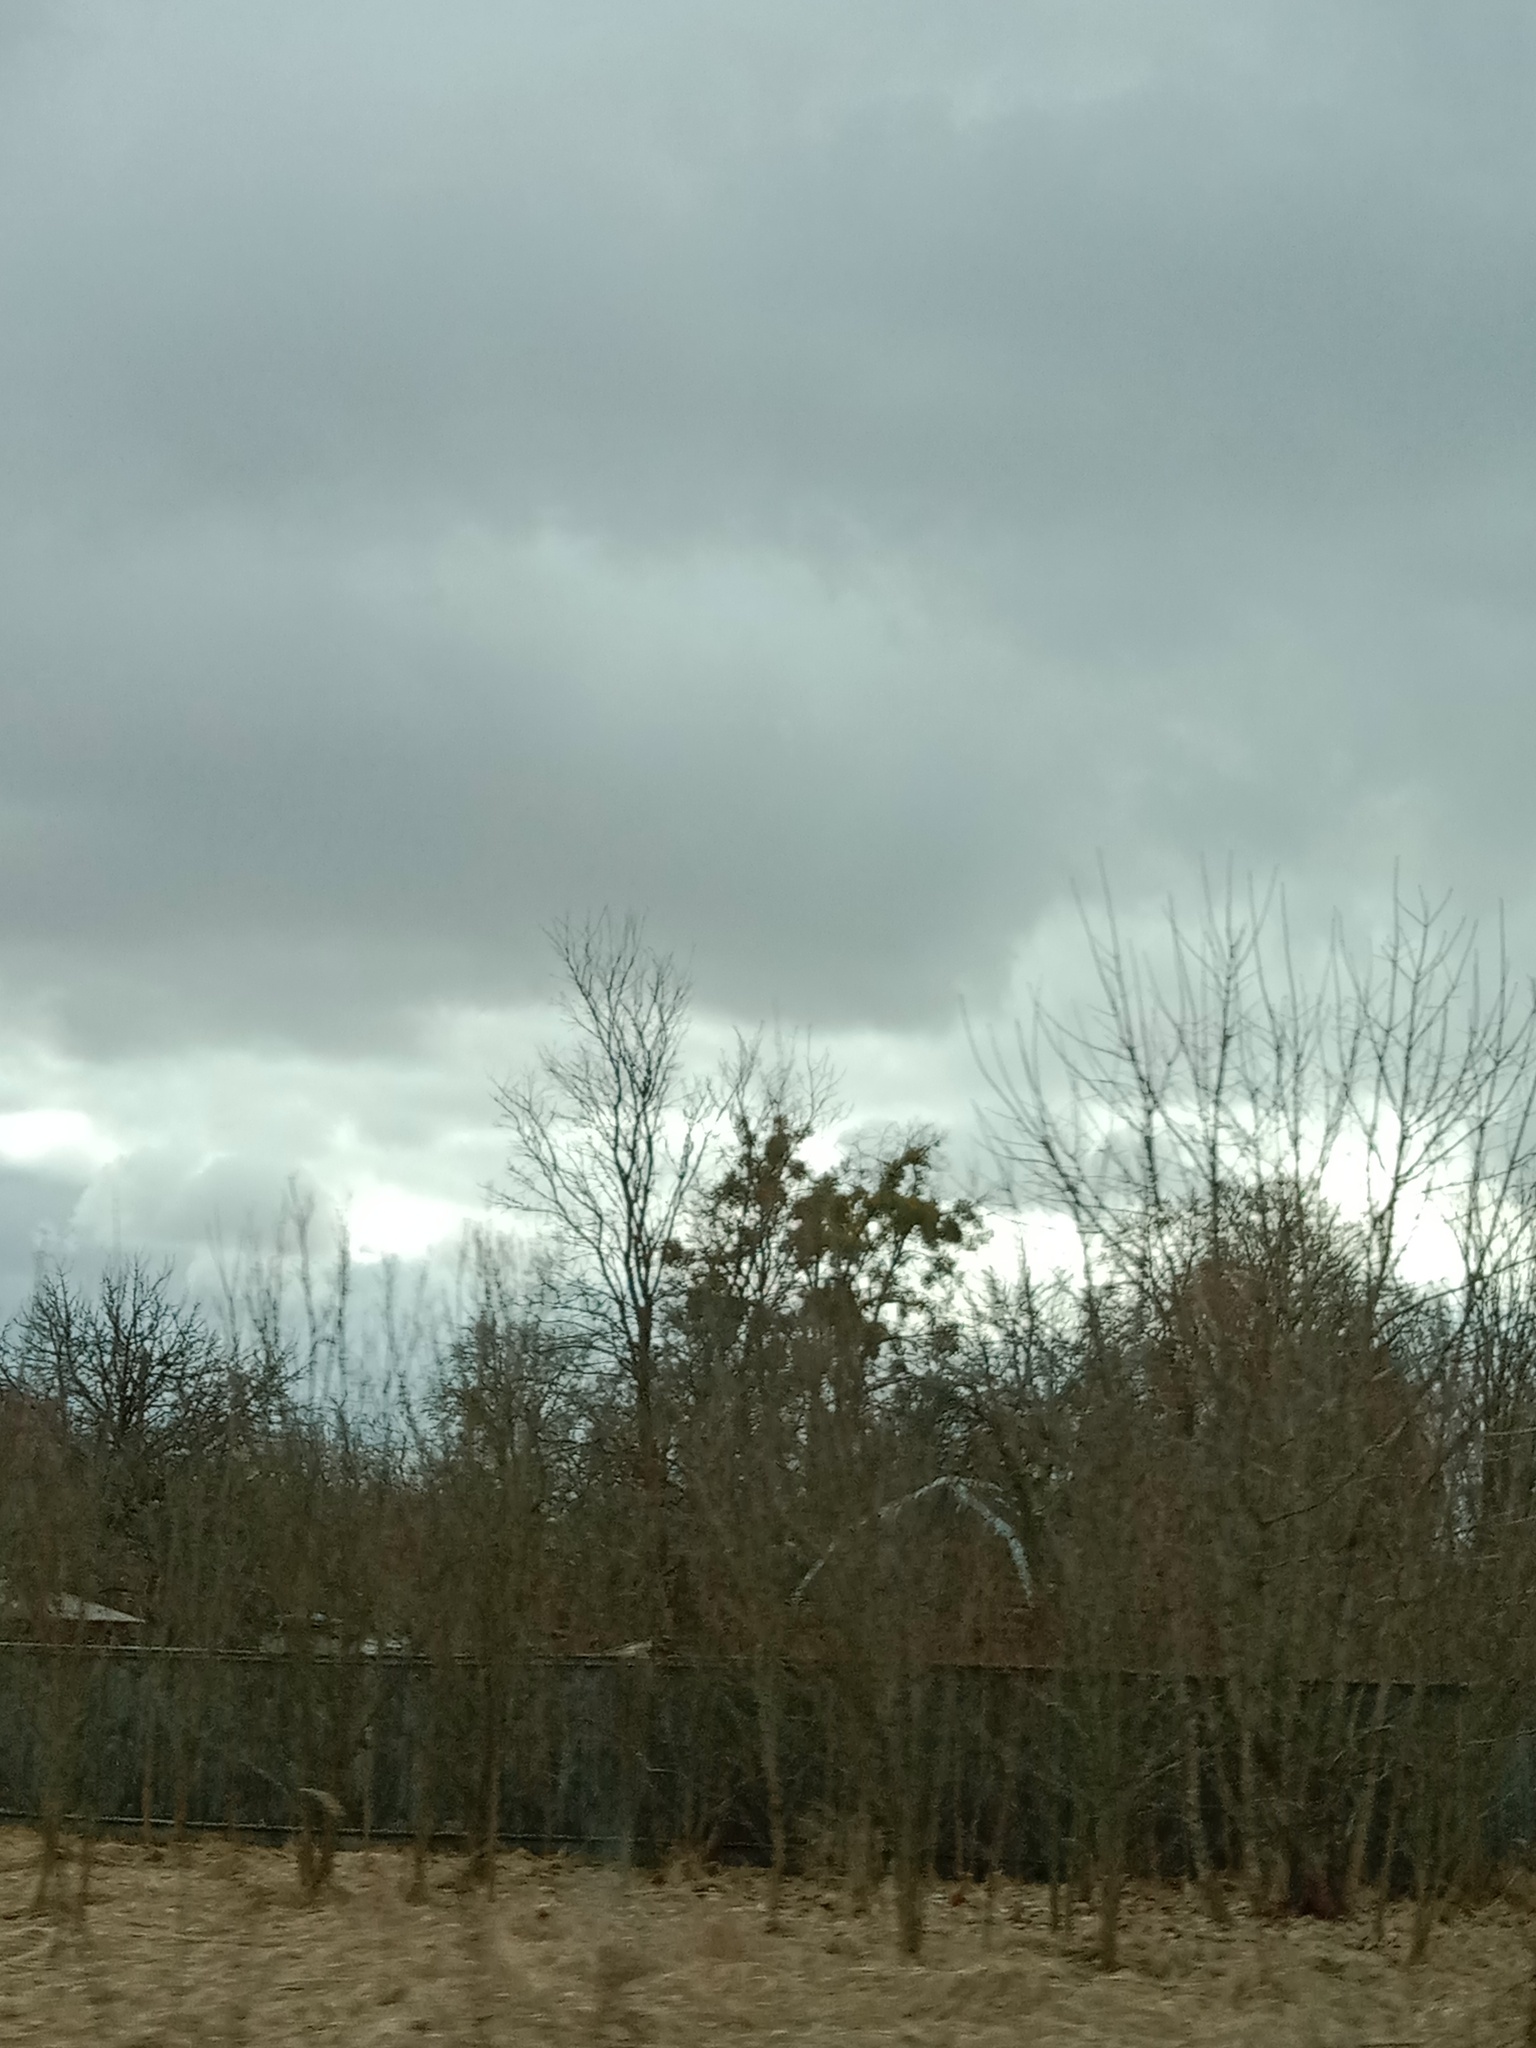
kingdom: Plantae
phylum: Tracheophyta
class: Magnoliopsida
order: Santalales
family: Viscaceae
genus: Viscum
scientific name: Viscum album
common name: Mistletoe
